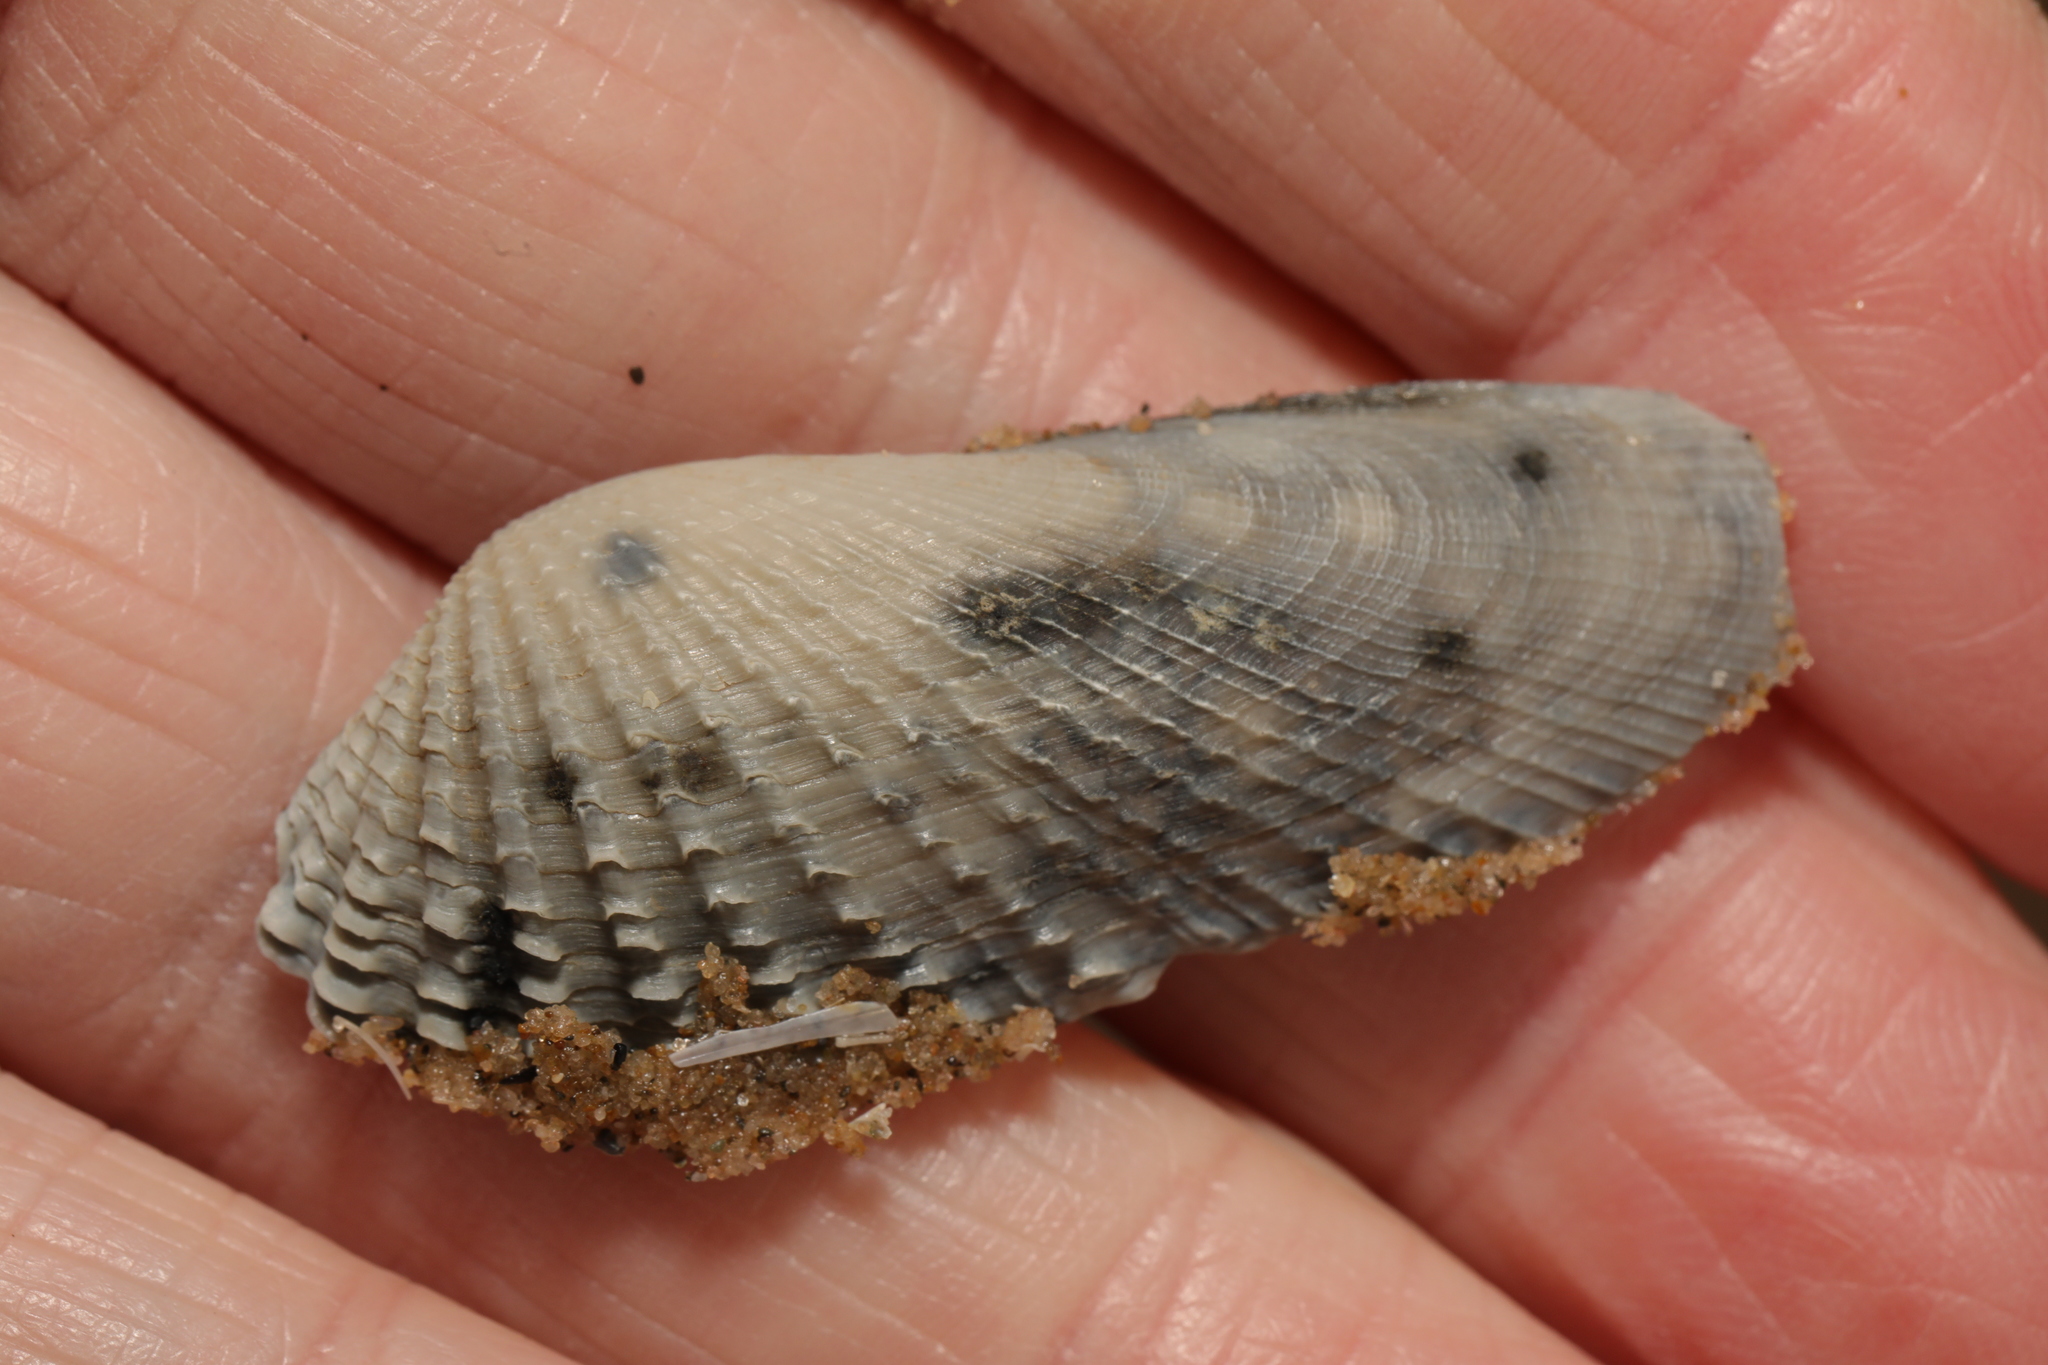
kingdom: Animalia
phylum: Mollusca
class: Bivalvia
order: Venerida
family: Veneridae
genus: Petricolaria
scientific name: Petricolaria pholadiformis
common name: American piddock
